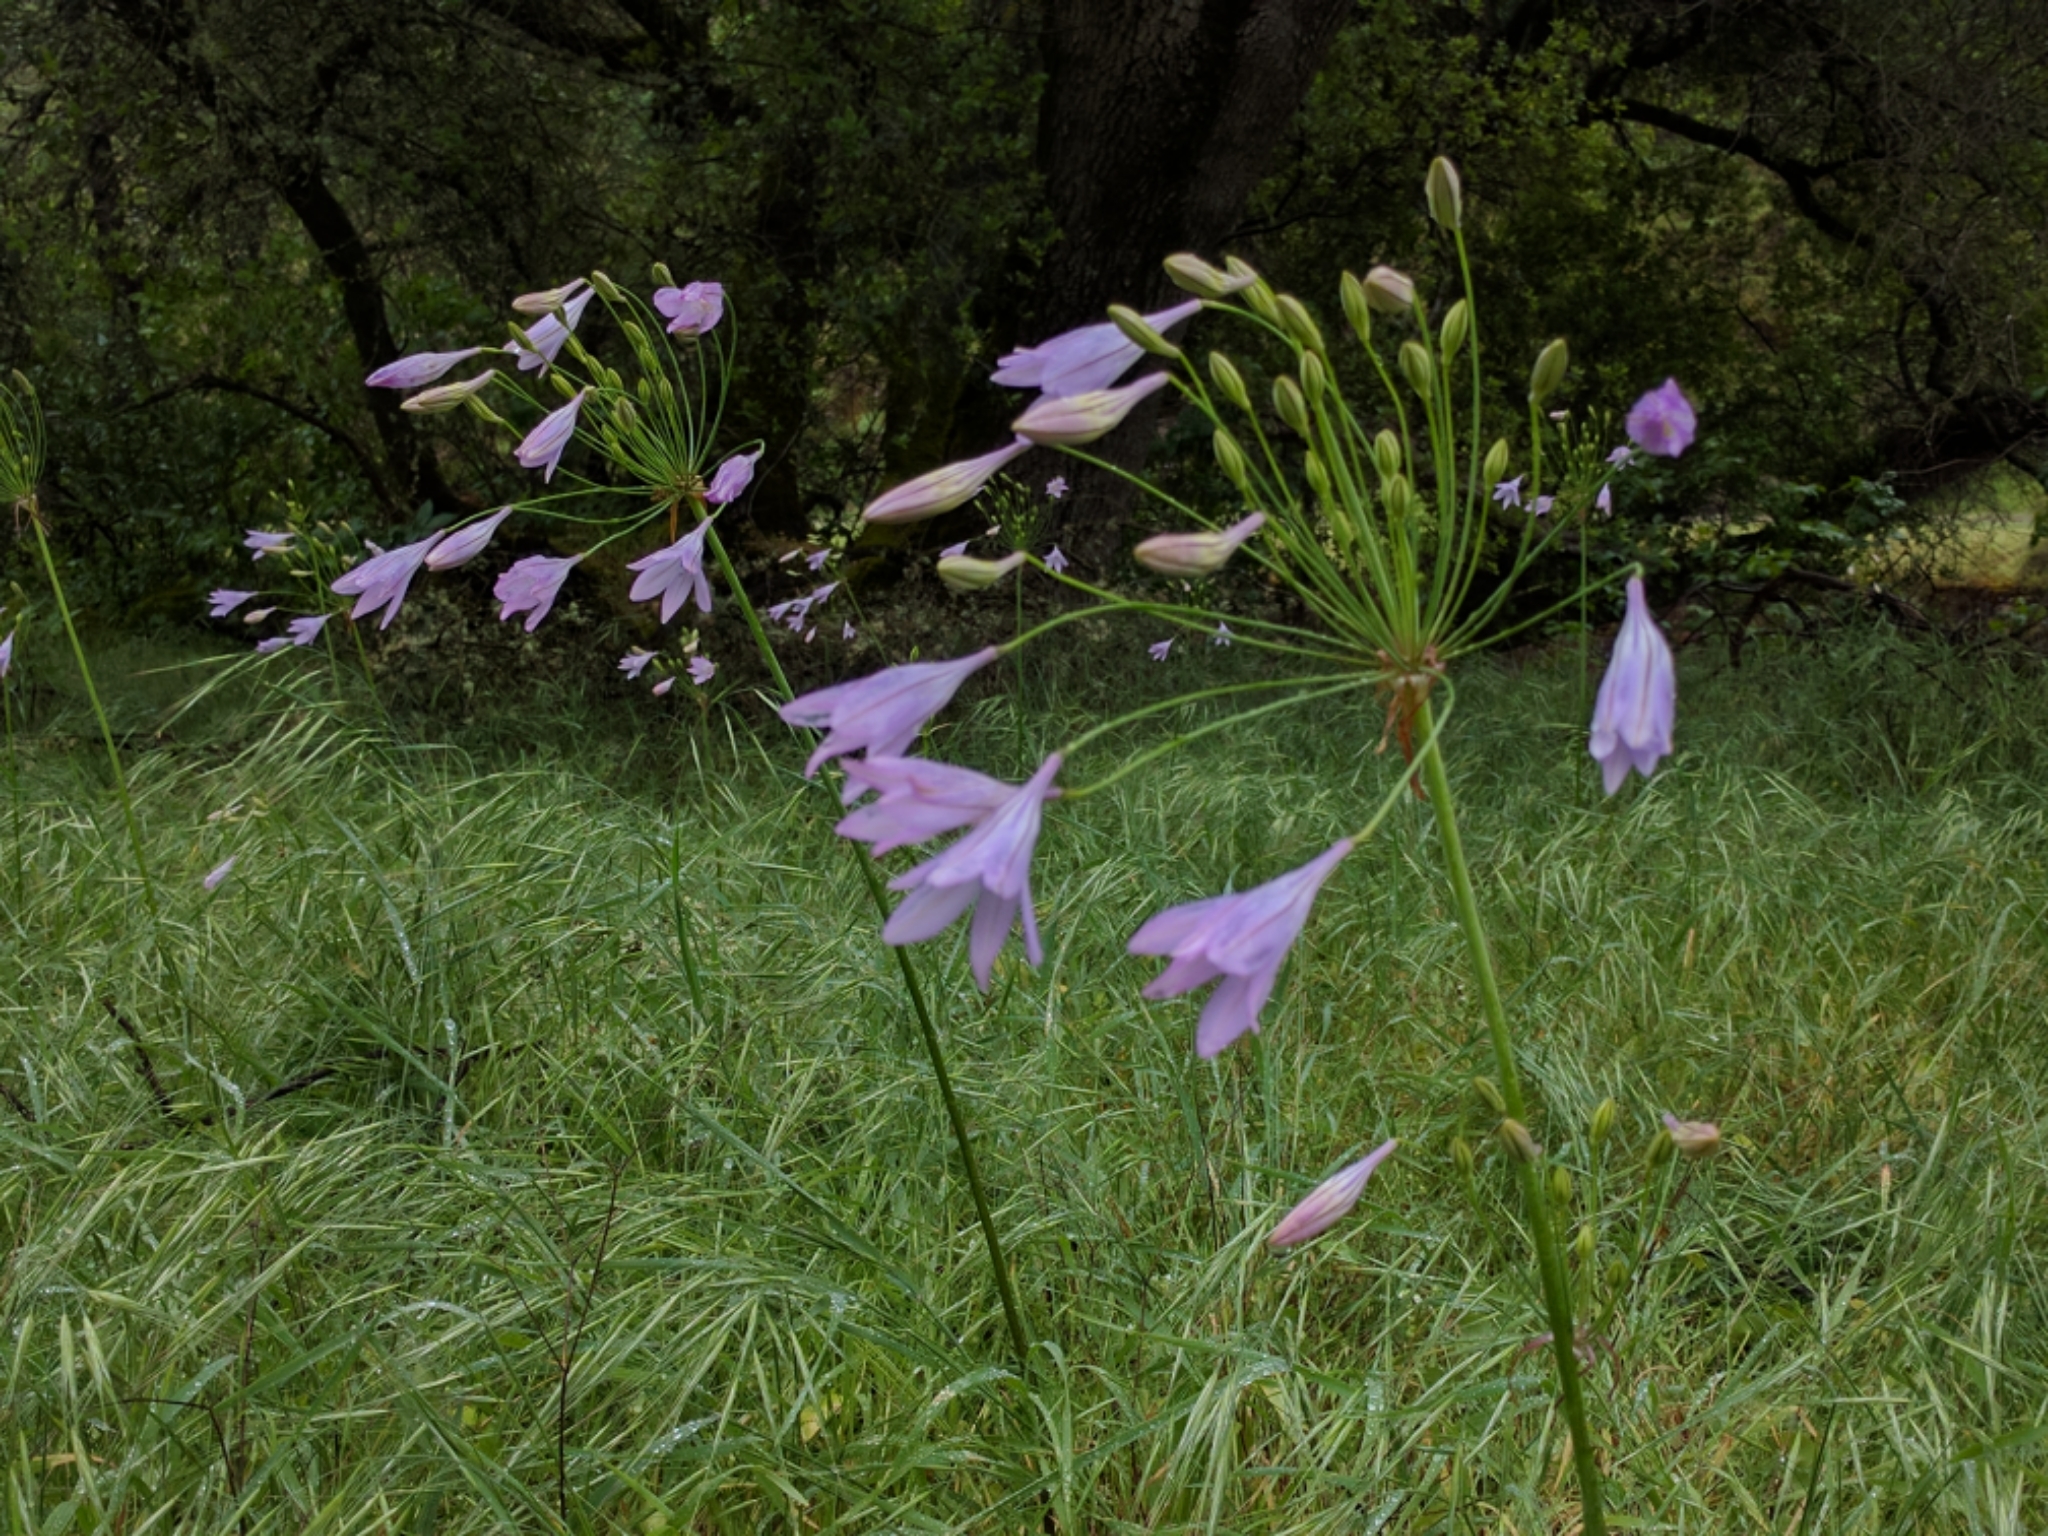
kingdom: Plantae
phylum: Tracheophyta
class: Liliopsida
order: Asparagales
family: Asparagaceae
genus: Triteleia
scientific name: Triteleia laxa
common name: Triplet-lily
